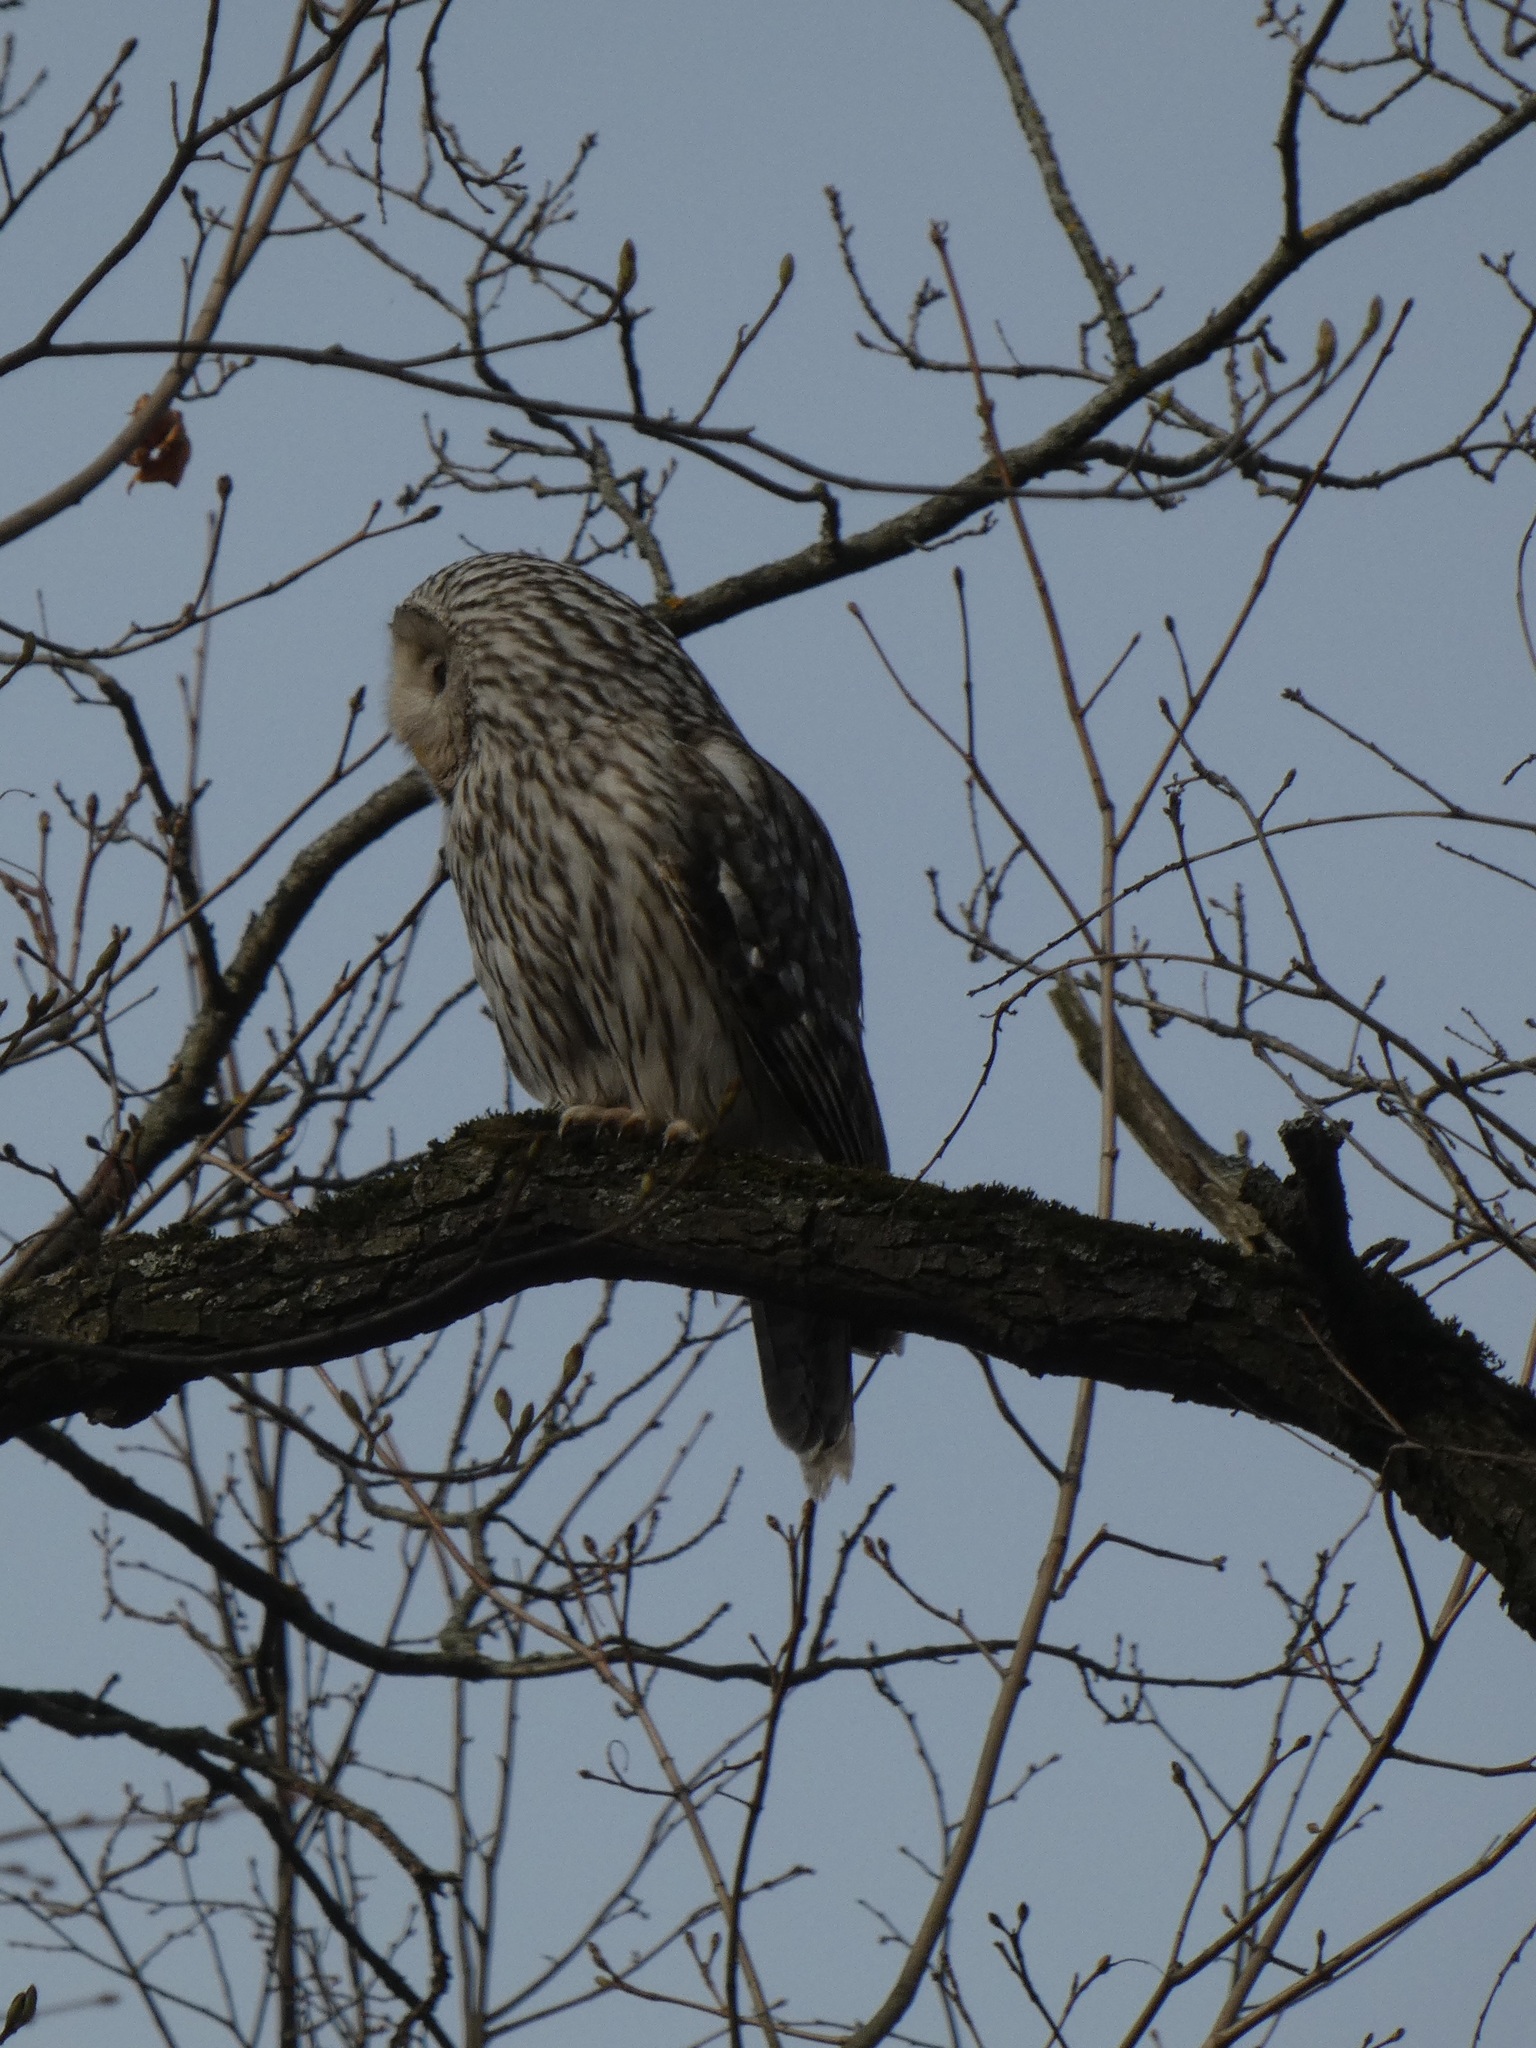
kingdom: Animalia
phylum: Chordata
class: Aves
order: Strigiformes
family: Strigidae
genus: Strix
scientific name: Strix uralensis
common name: Ural owl
